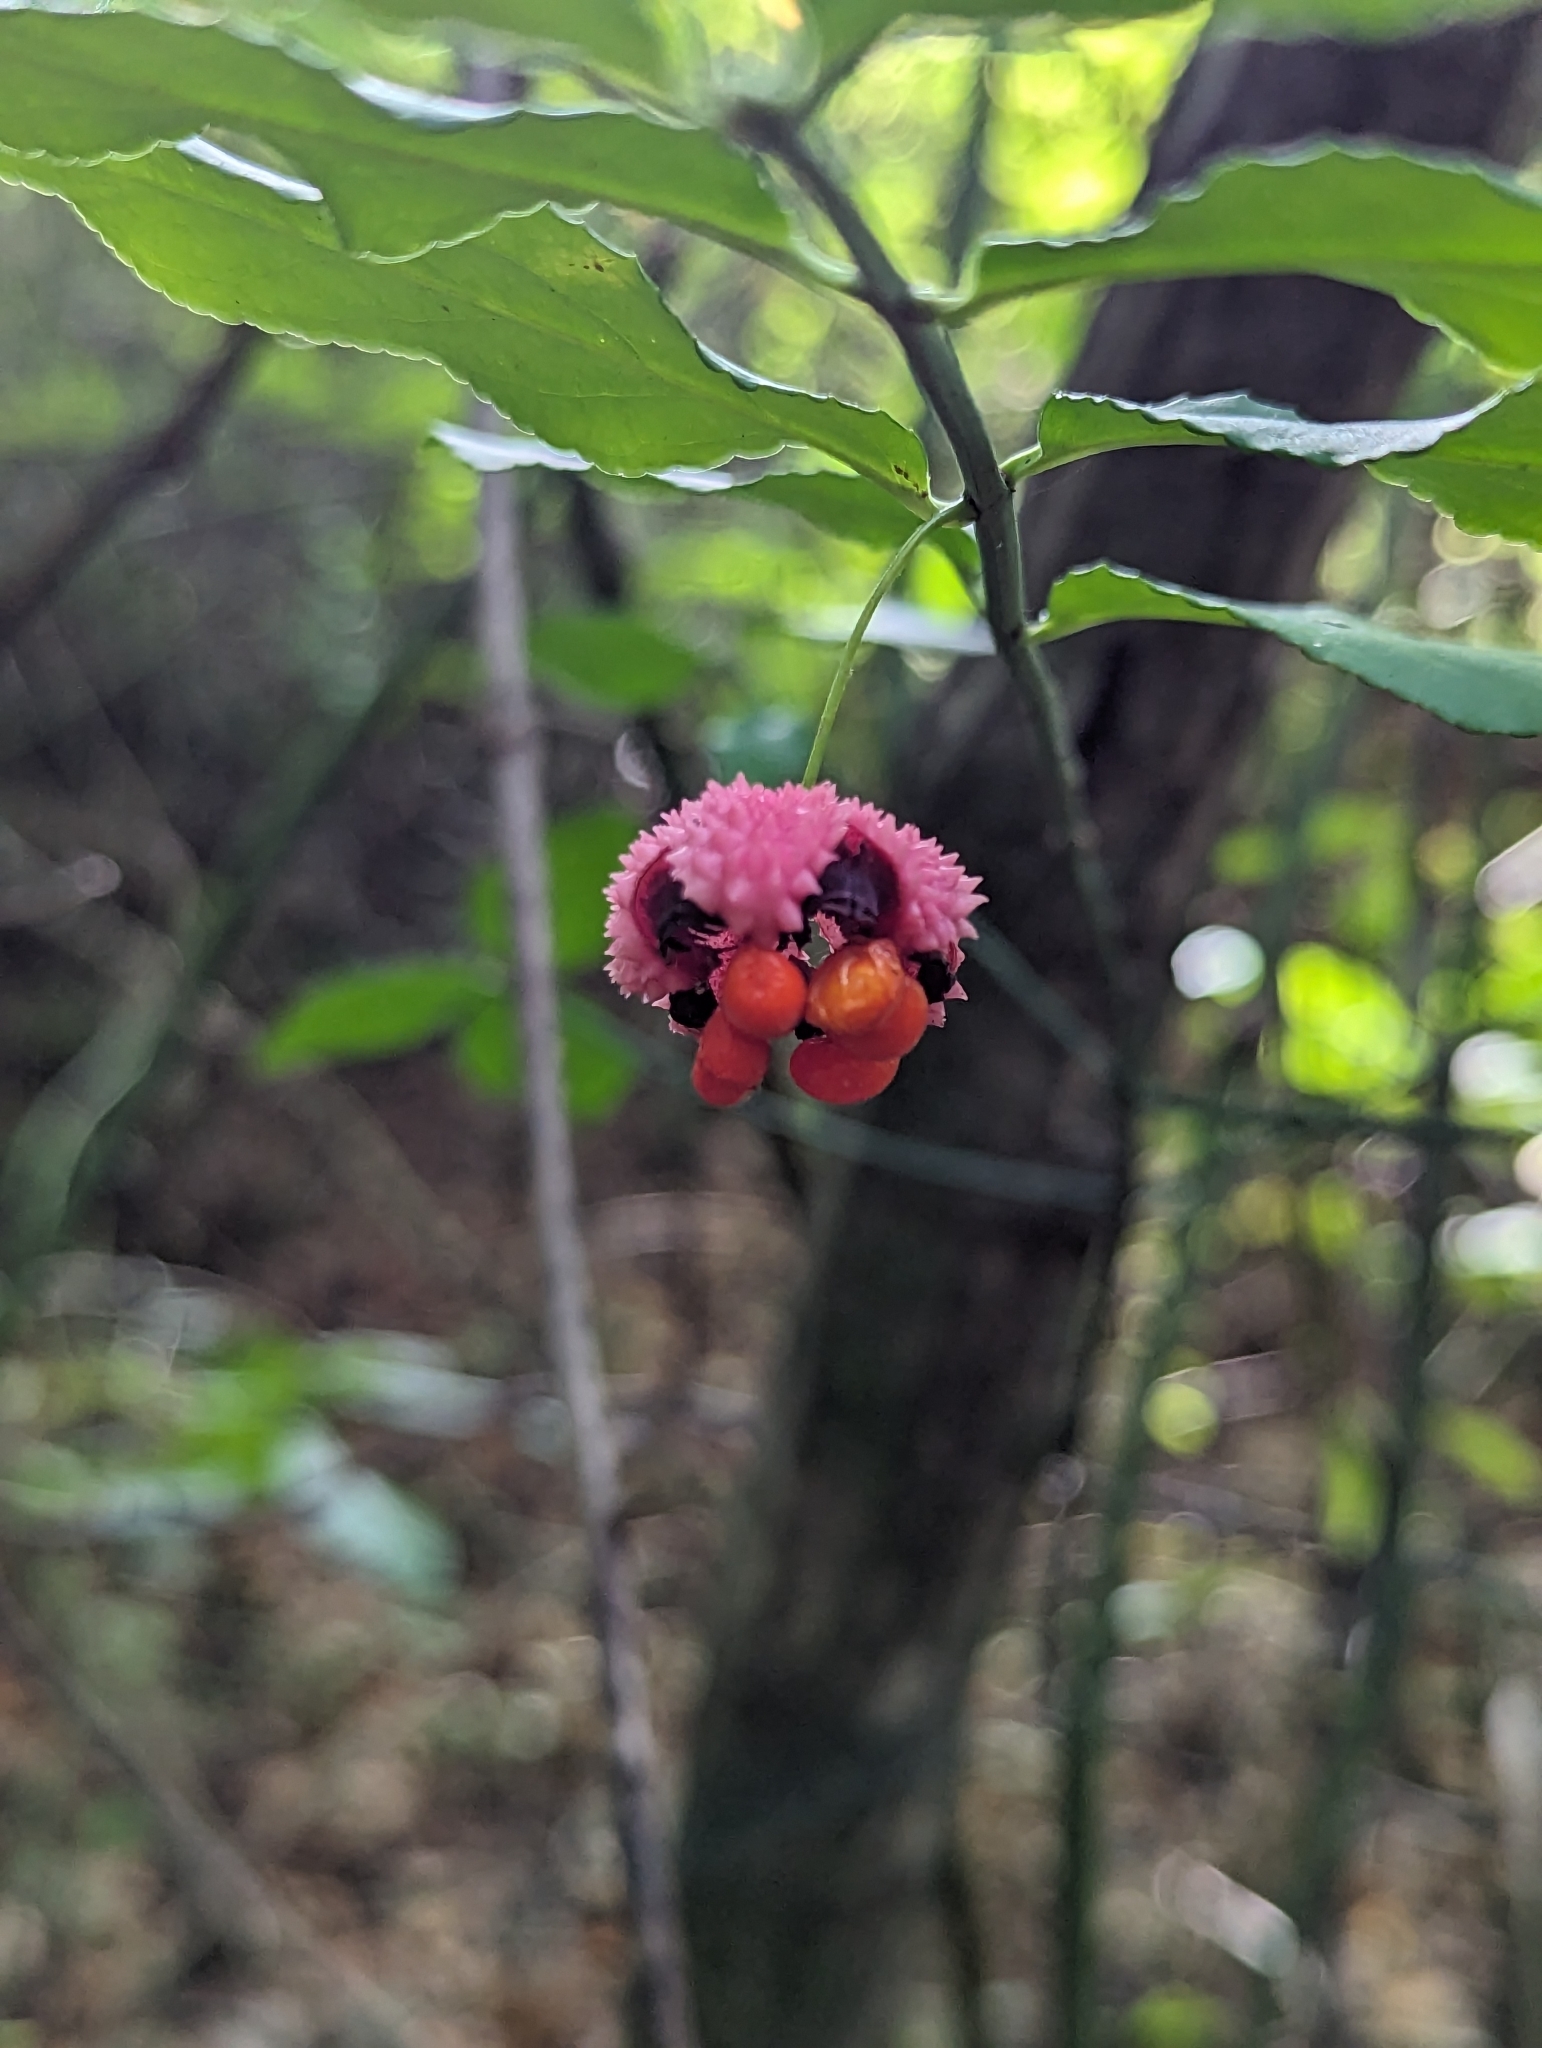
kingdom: Plantae
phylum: Tracheophyta
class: Magnoliopsida
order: Celastrales
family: Celastraceae
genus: Euonymus
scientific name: Euonymus americanus
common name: Bursting-heart
